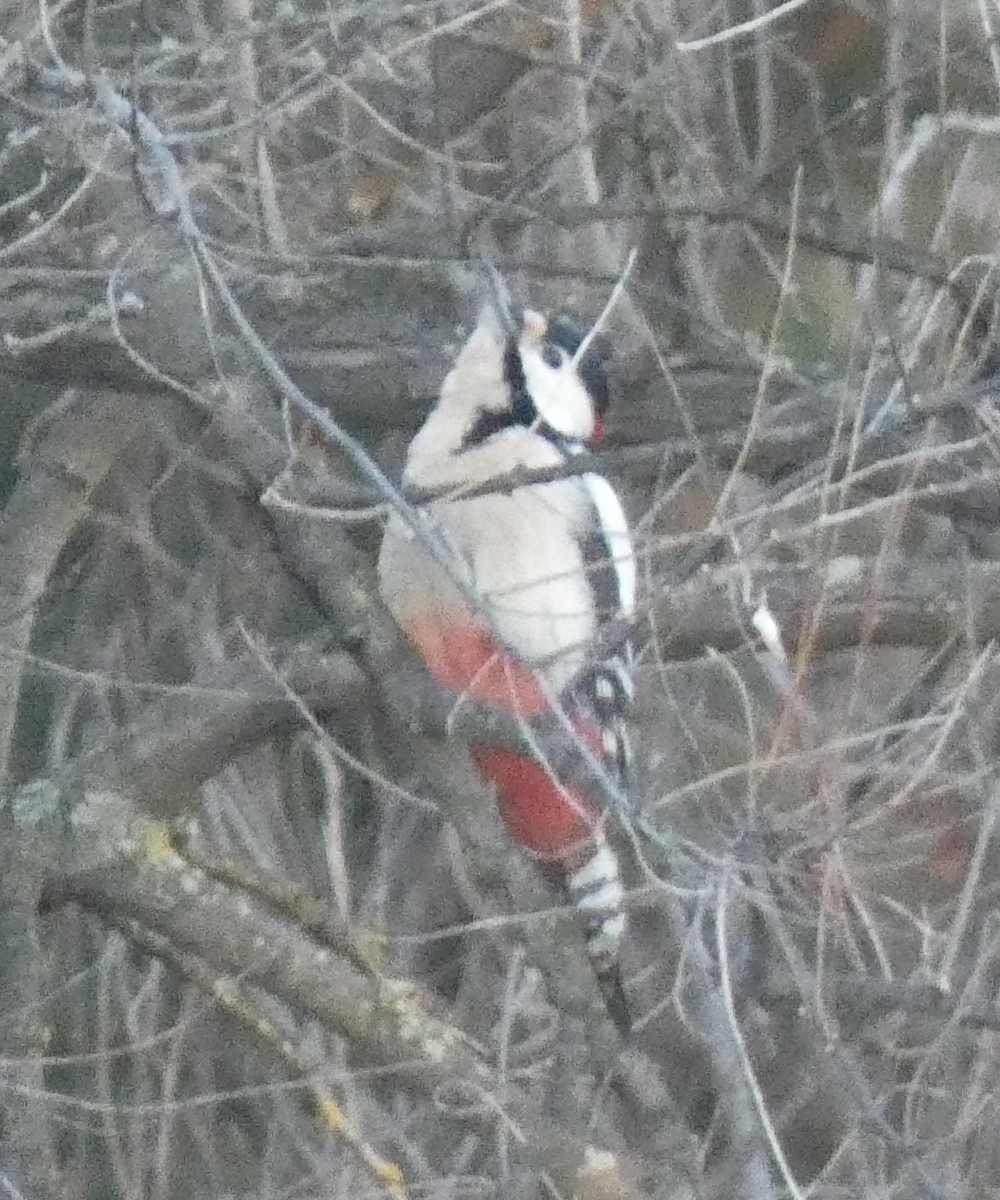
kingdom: Animalia
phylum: Chordata
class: Aves
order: Piciformes
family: Picidae
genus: Dendrocopos
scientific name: Dendrocopos major
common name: Great spotted woodpecker
